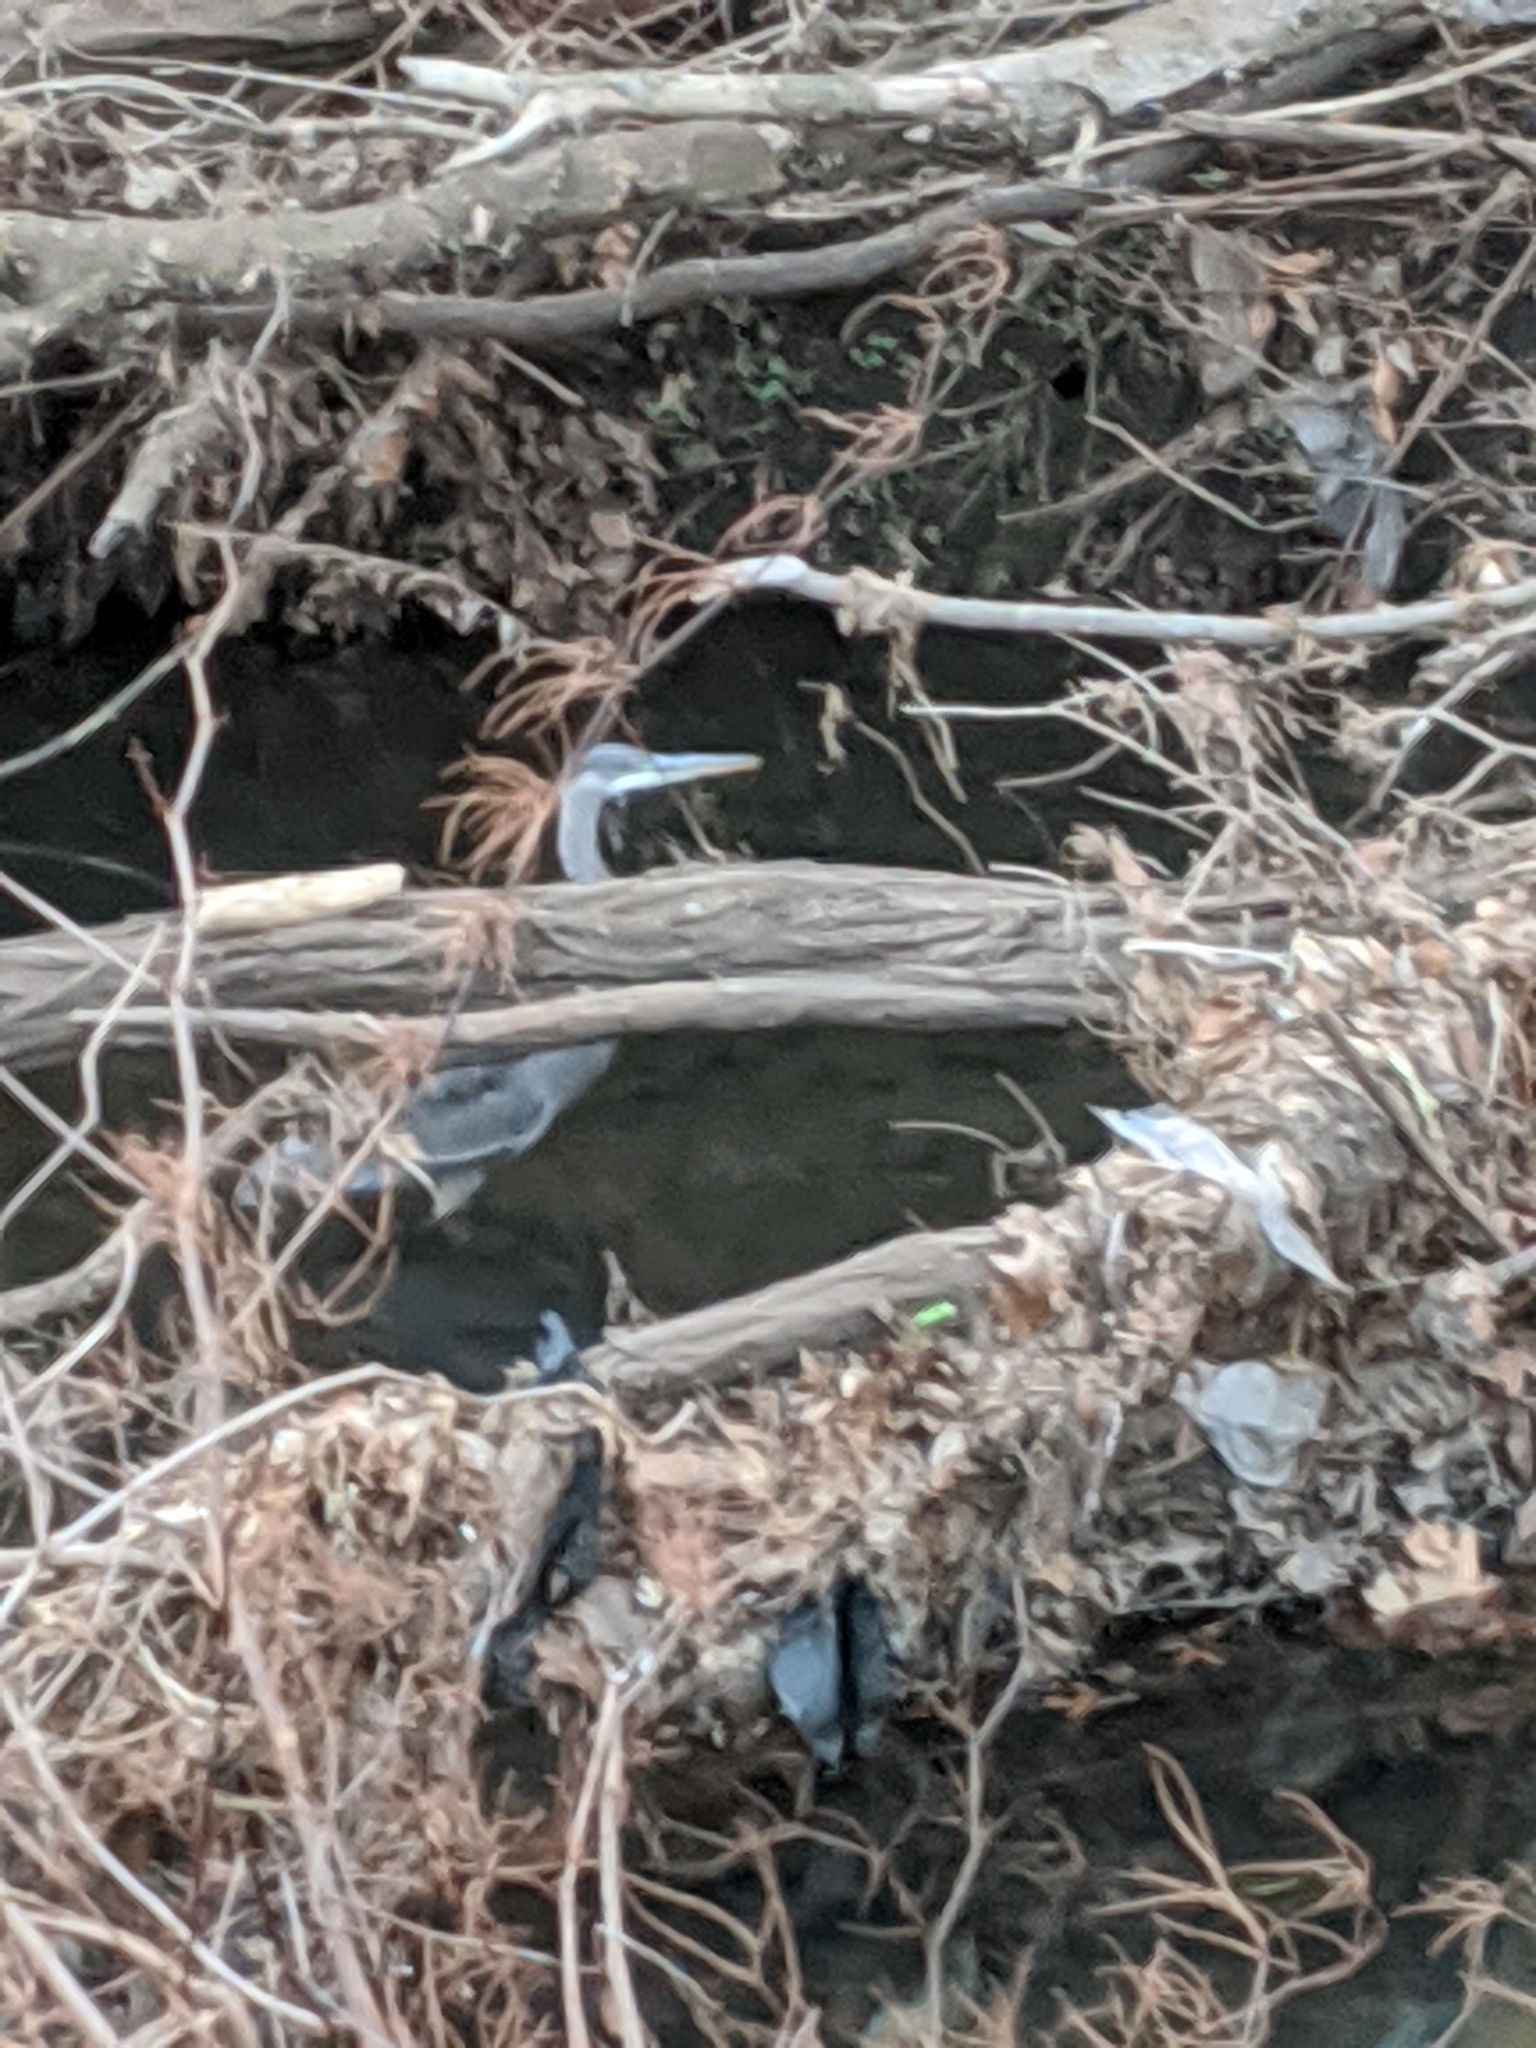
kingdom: Animalia
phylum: Chordata
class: Aves
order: Pelecaniformes
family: Ardeidae
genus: Ardea
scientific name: Ardea herodias
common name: Great blue heron
